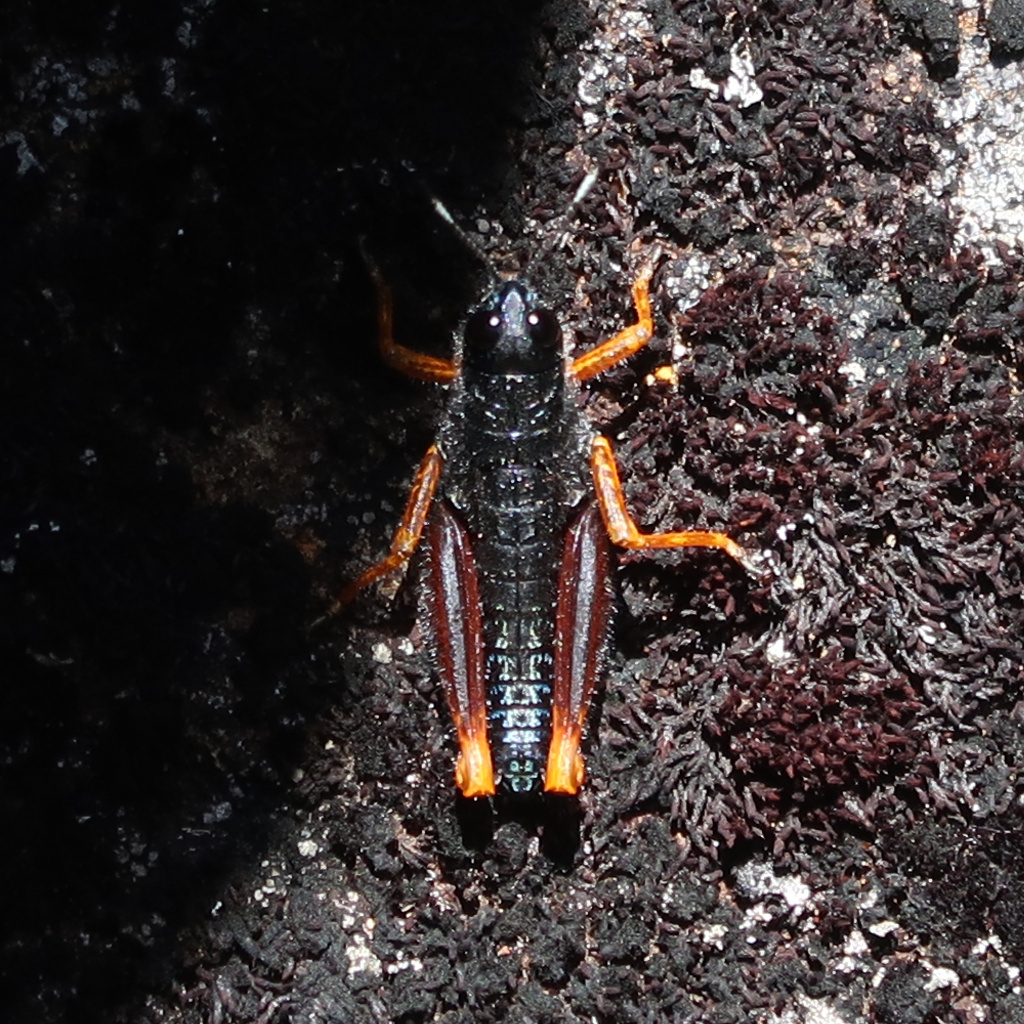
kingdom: Animalia
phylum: Arthropoda
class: Insecta
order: Orthoptera
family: Acrididae
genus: Tasmanalpina
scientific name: Tasmanalpina clavata
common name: Tasmanian velvet grasshopper
